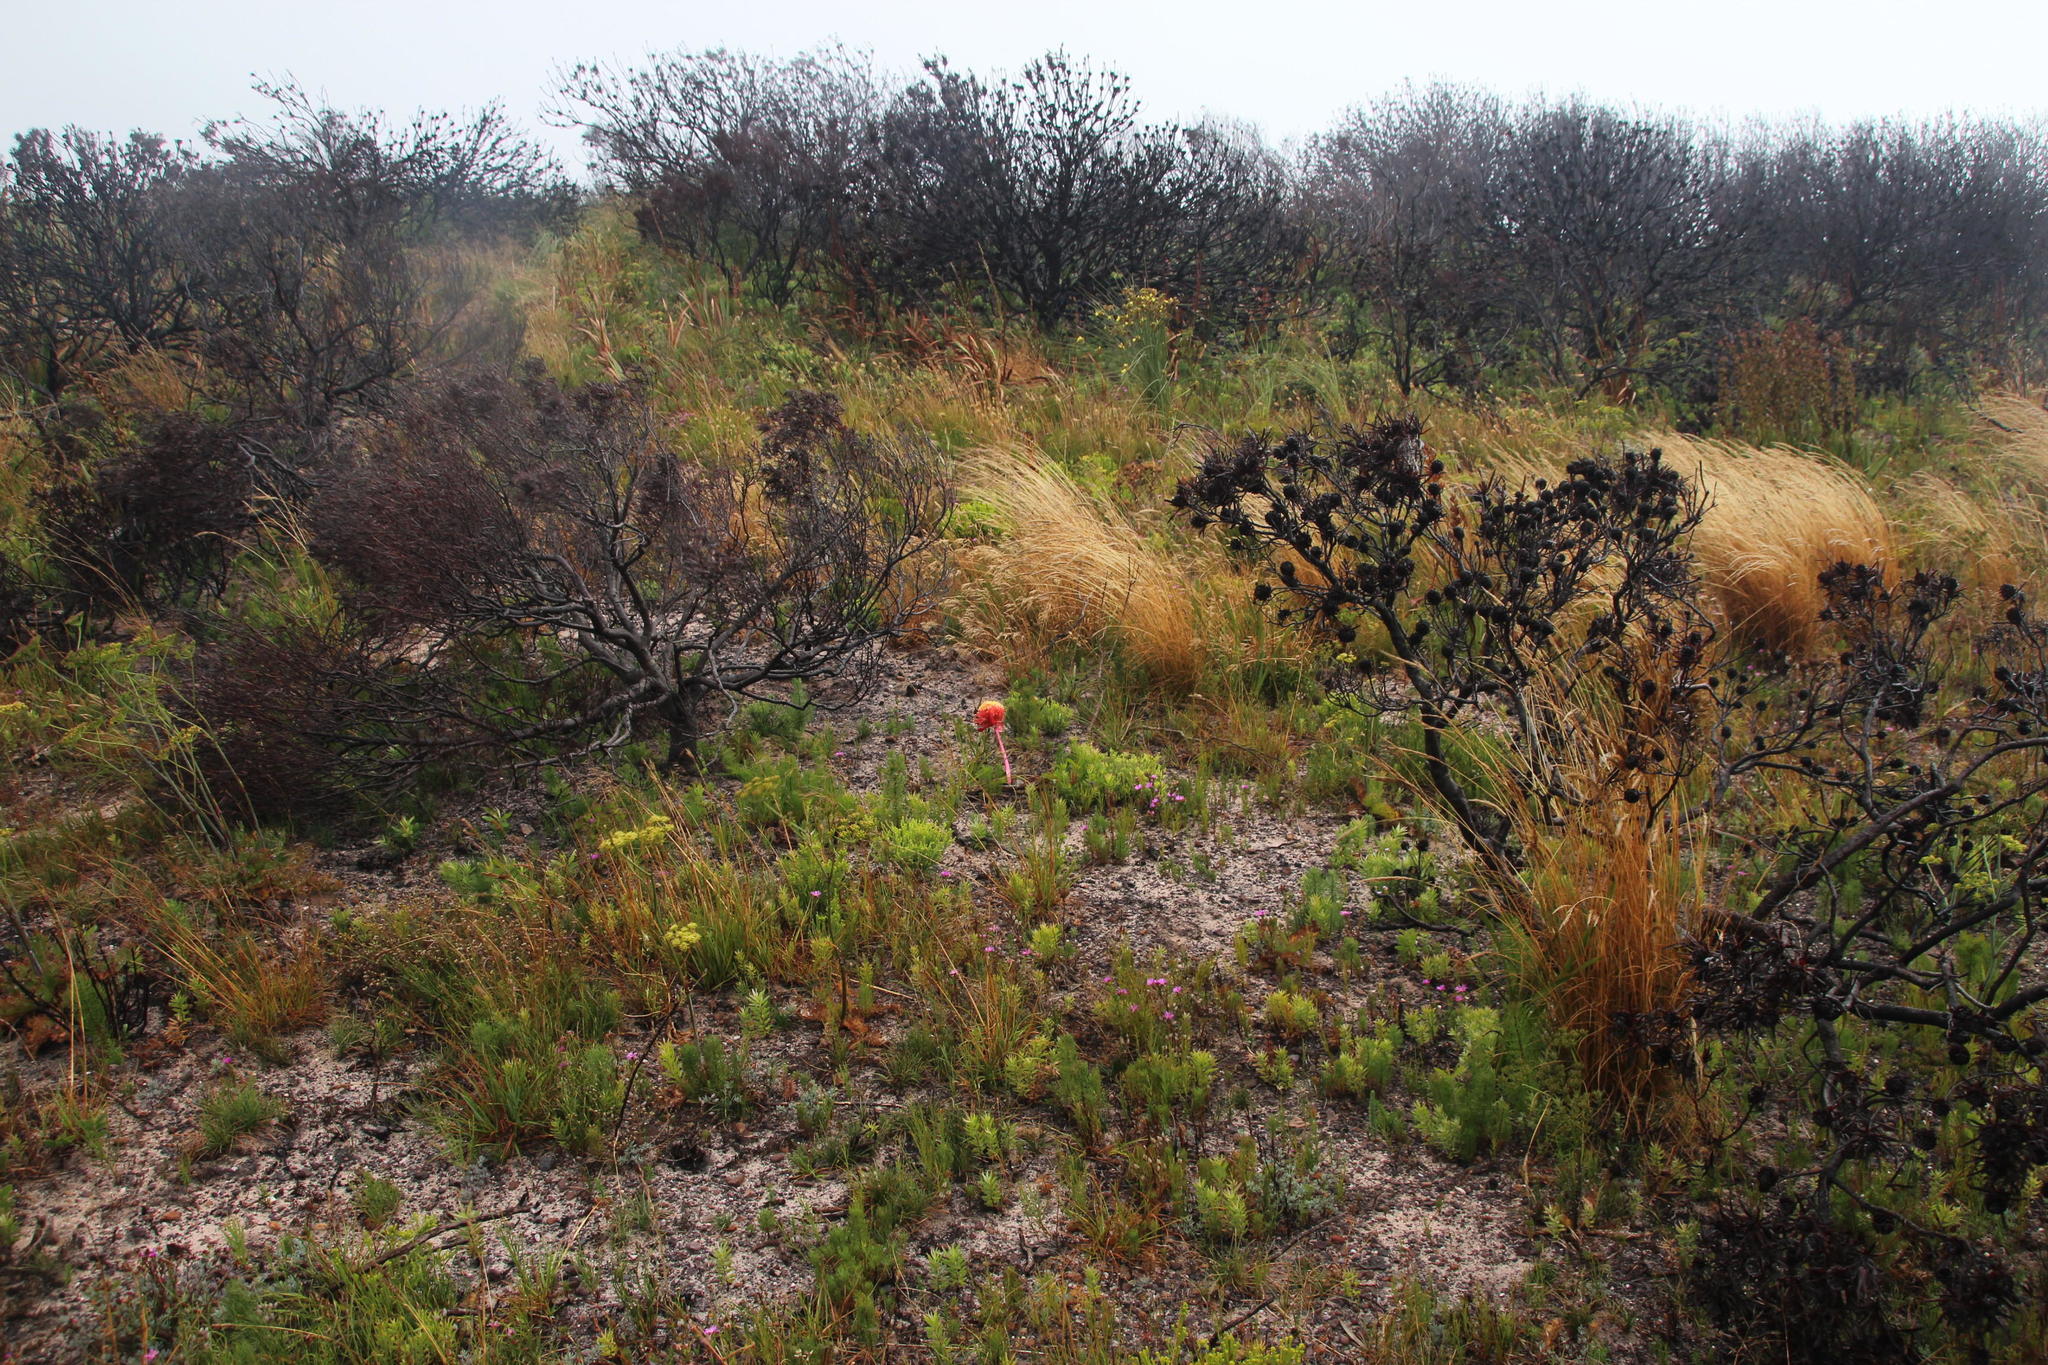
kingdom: Plantae
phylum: Tracheophyta
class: Liliopsida
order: Asparagales
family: Amaryllidaceae
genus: Haemanthus
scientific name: Haemanthus sanguineus
